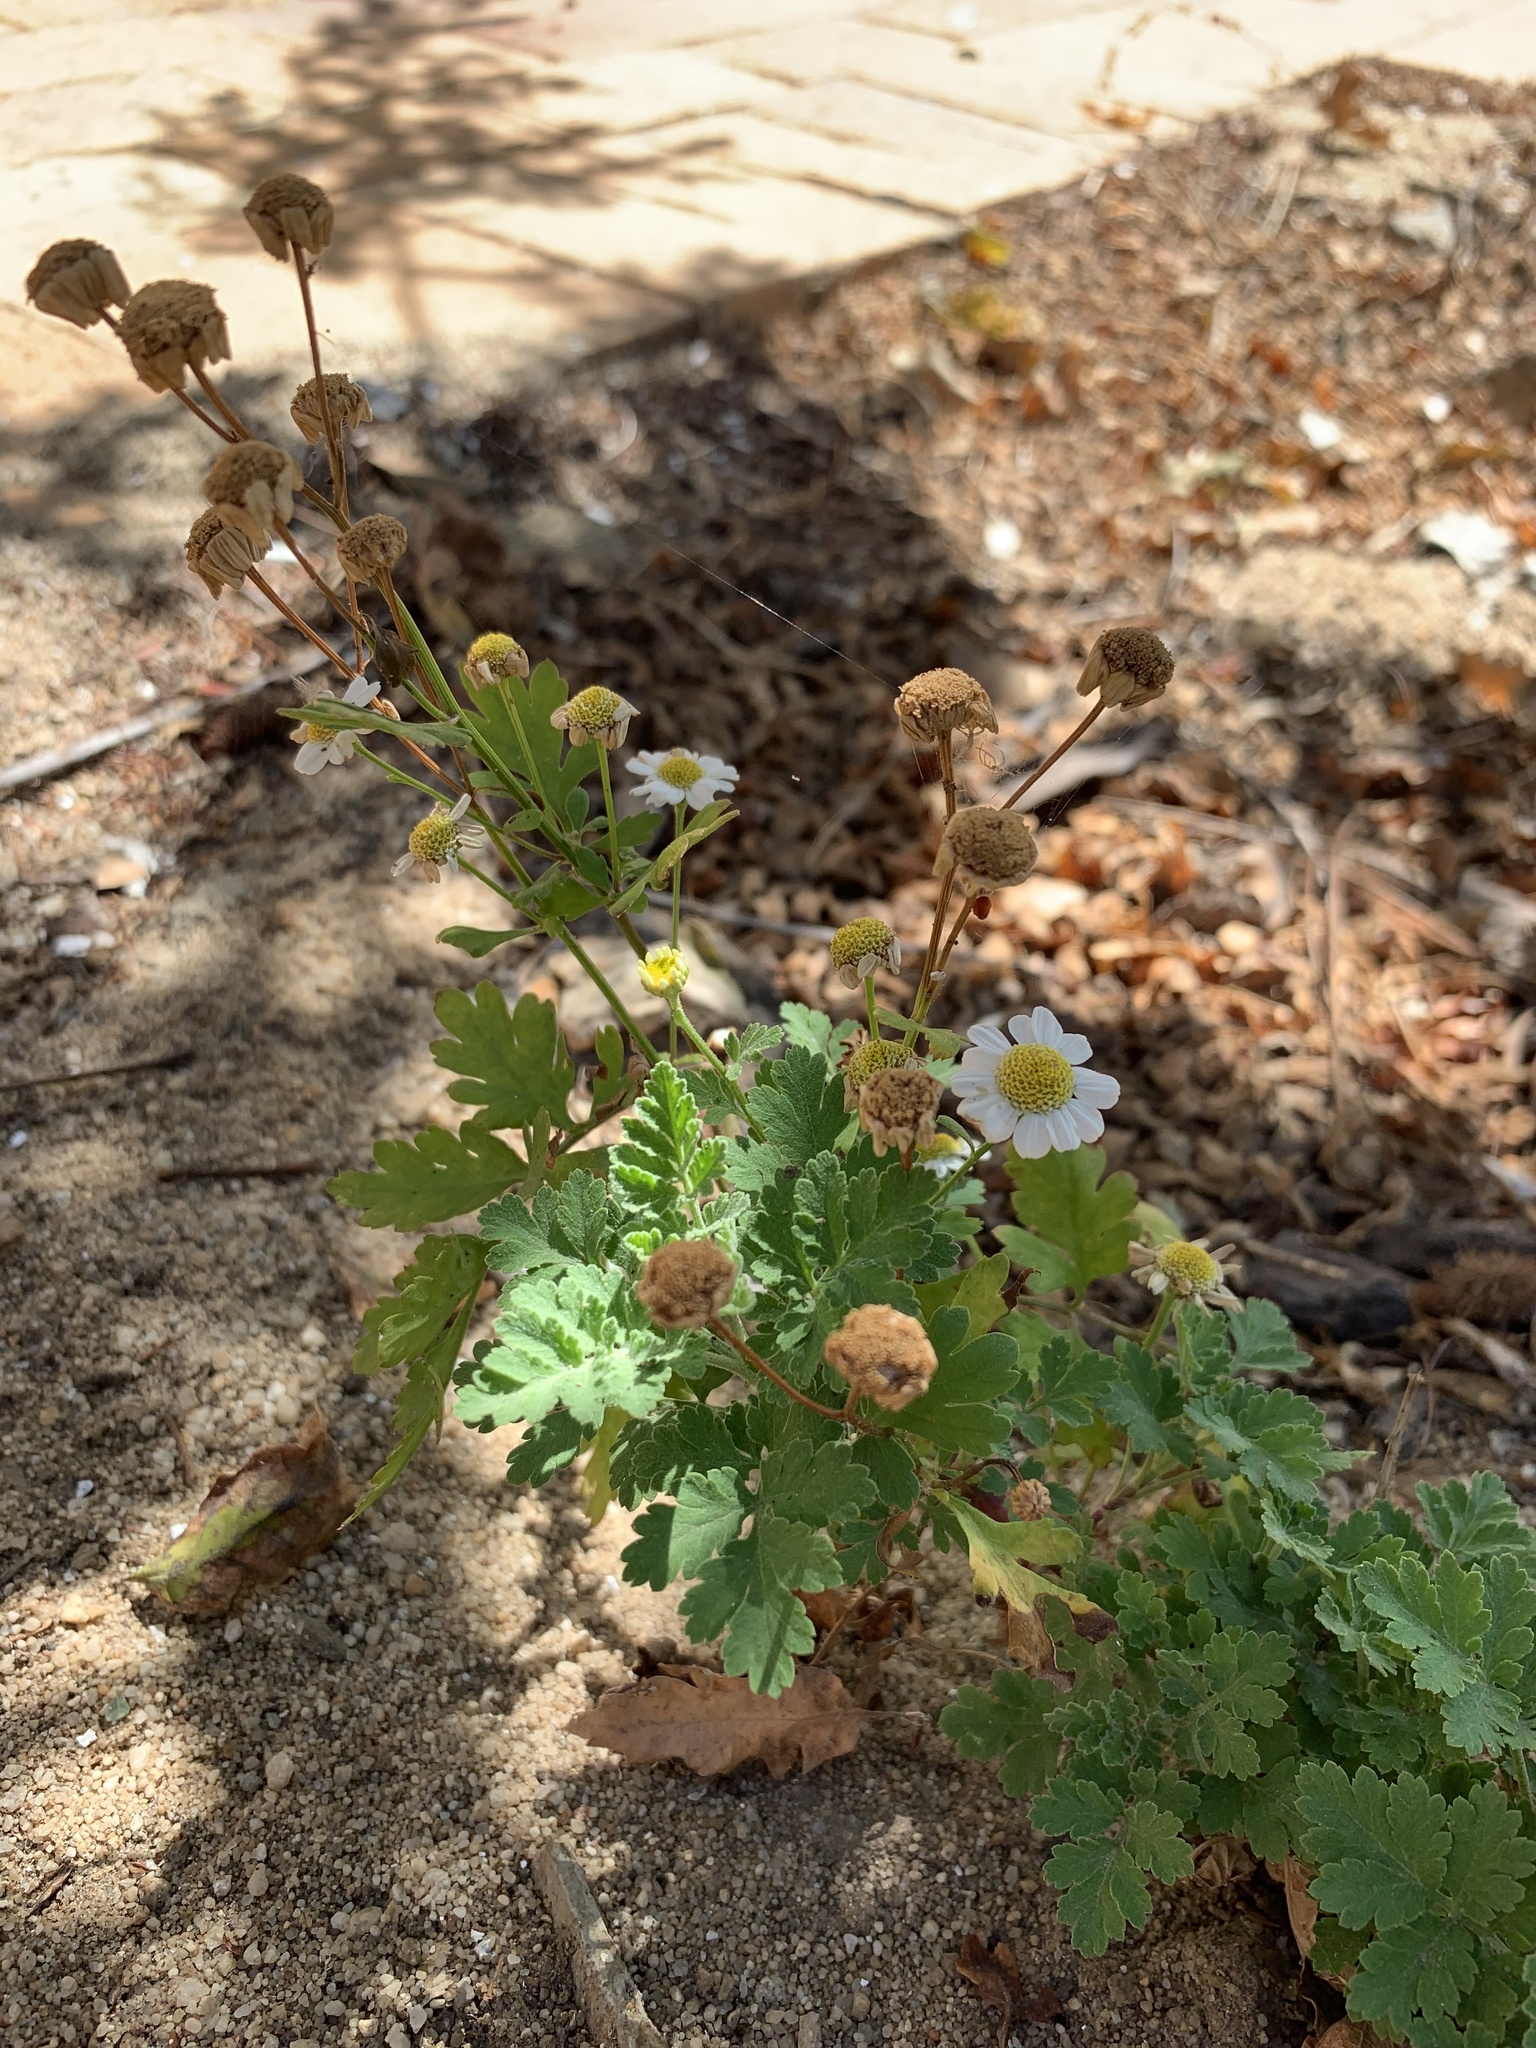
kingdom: Plantae
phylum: Tracheophyta
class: Magnoliopsida
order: Asterales
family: Asteraceae
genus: Tanacetum
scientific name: Tanacetum parthenium
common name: Feverfew
